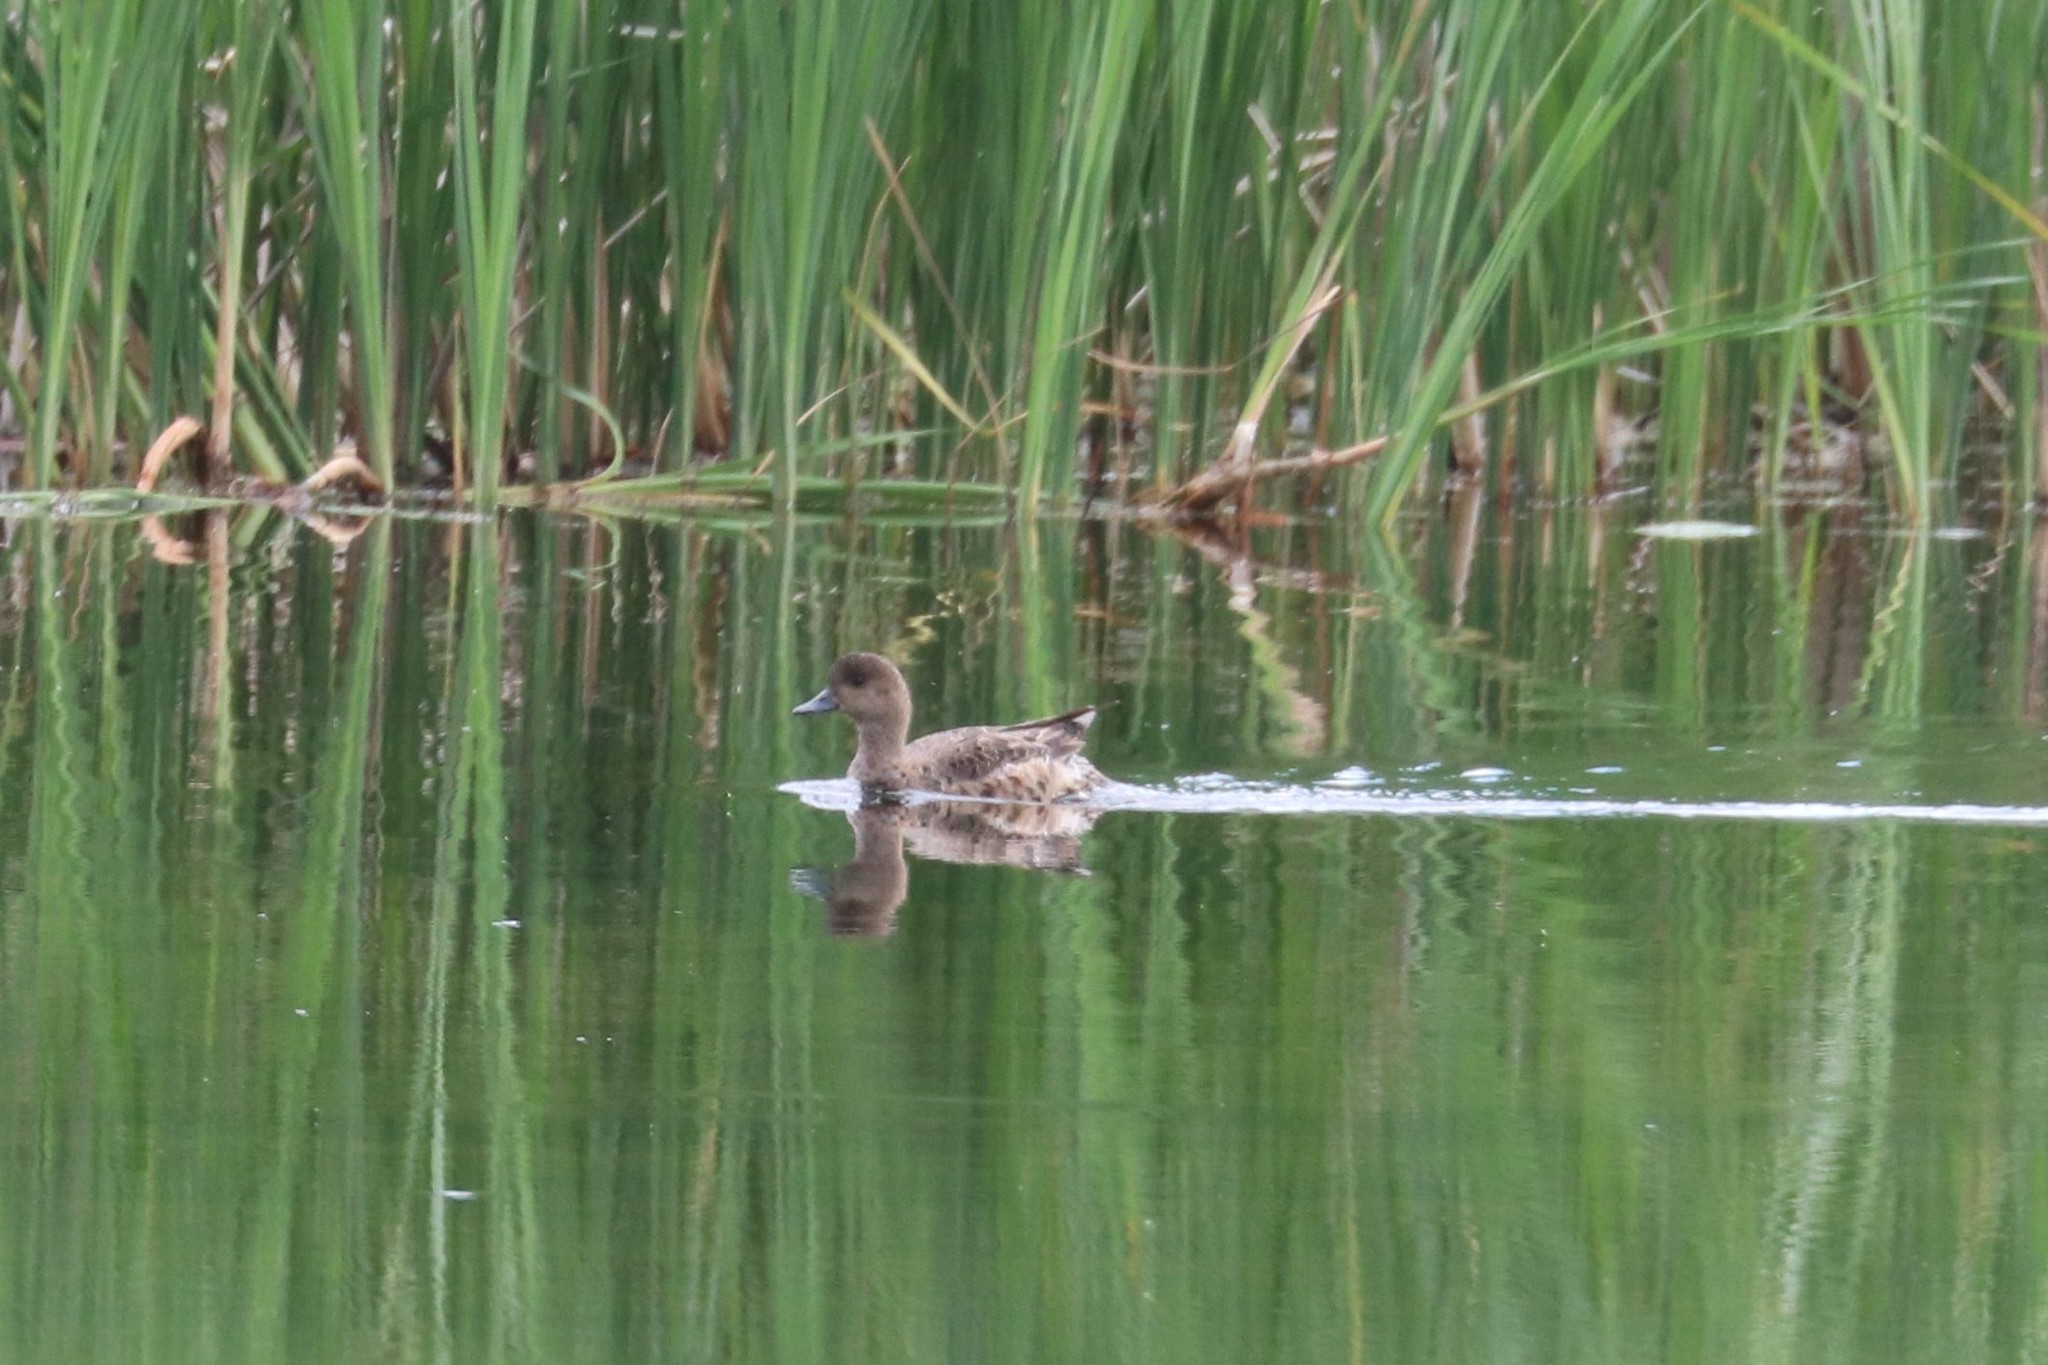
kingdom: Animalia
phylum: Chordata
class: Aves
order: Anseriformes
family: Anatidae
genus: Mareca
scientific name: Mareca penelope
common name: Eurasian wigeon
